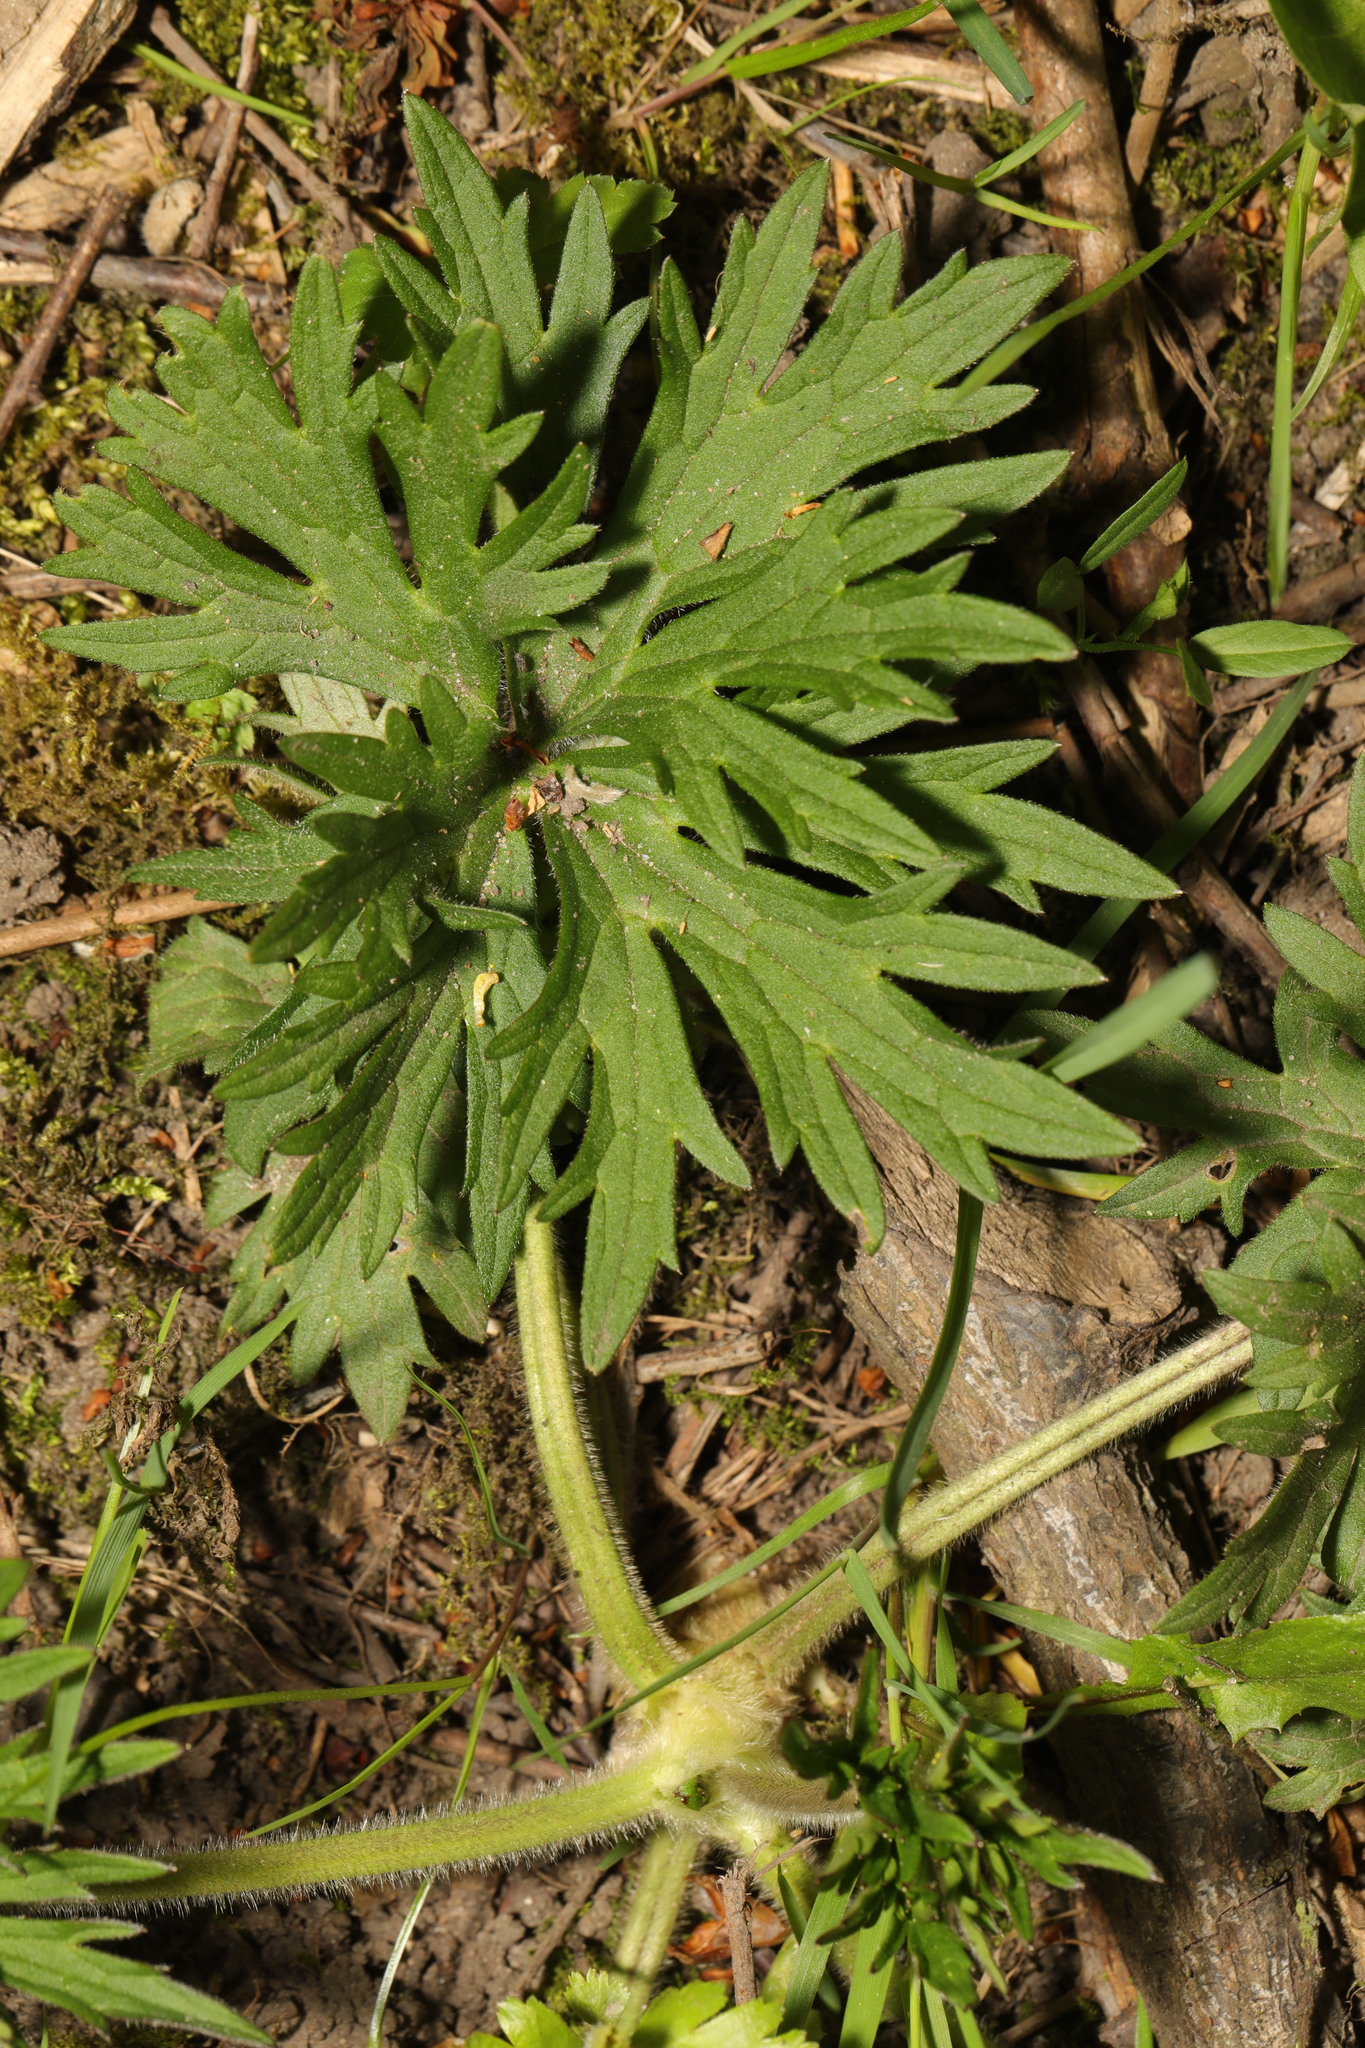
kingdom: Plantae
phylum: Tracheophyta
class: Magnoliopsida
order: Ranunculales
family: Ranunculaceae
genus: Ranunculus
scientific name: Ranunculus acris
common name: Meadow buttercup
